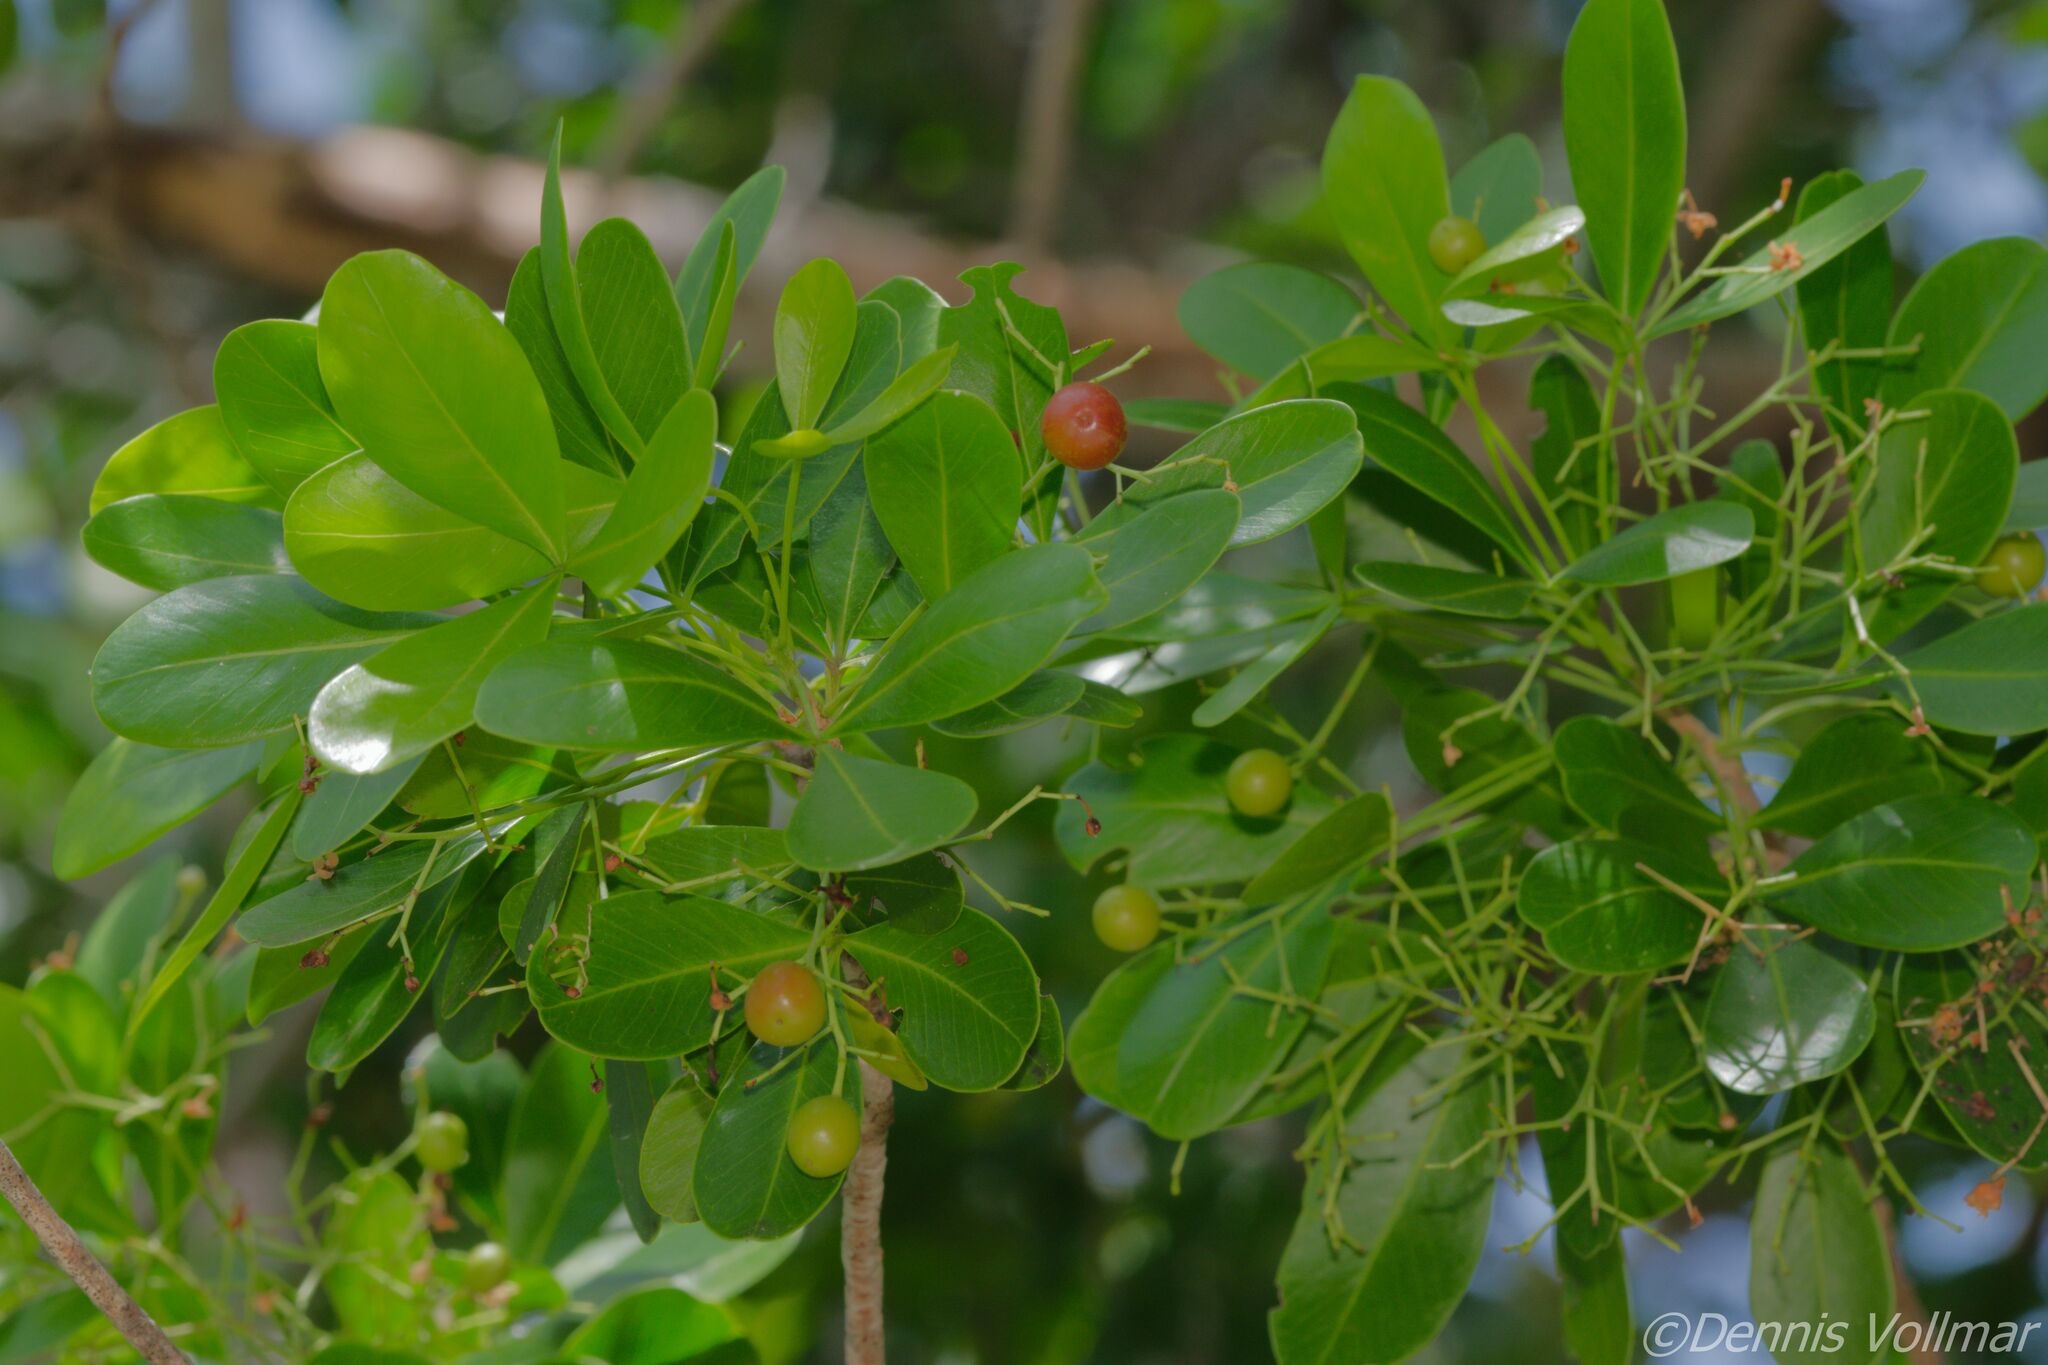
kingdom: Plantae
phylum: Tracheophyta
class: Magnoliopsida
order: Sapindales
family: Sapindaceae
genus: Hypelate
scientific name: Hypelate trifoliata
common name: Inkwood
